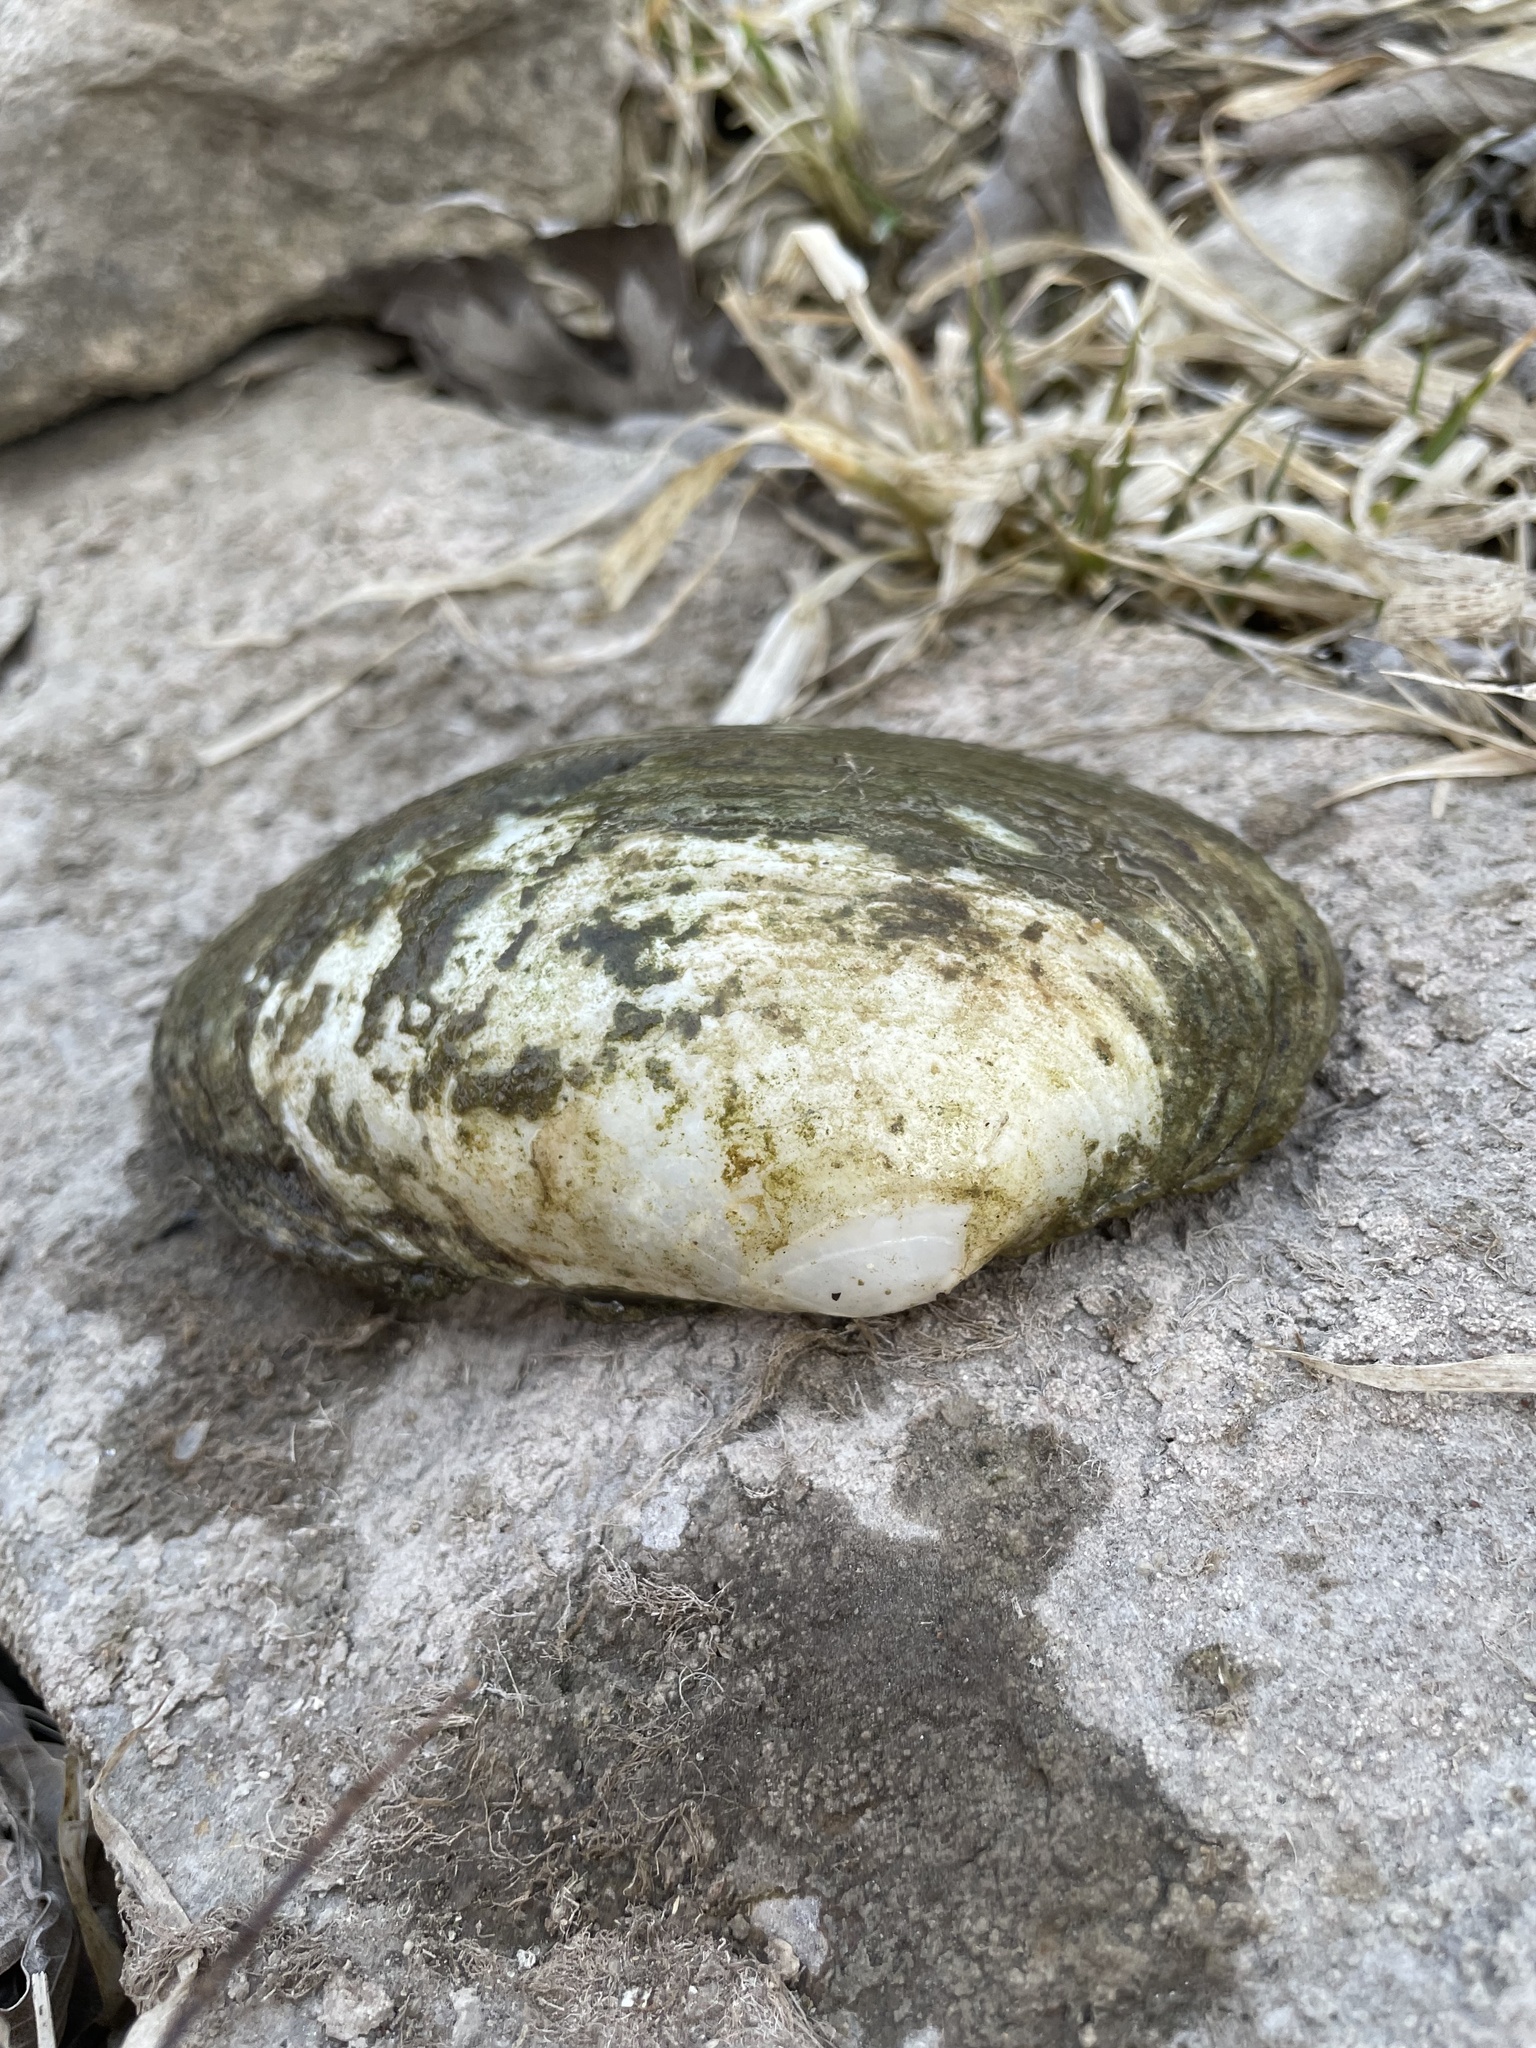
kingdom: Animalia
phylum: Mollusca
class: Bivalvia
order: Unionida
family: Unionidae
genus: Lampsilis
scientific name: Lampsilis cardium
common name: Plain pocketbook
